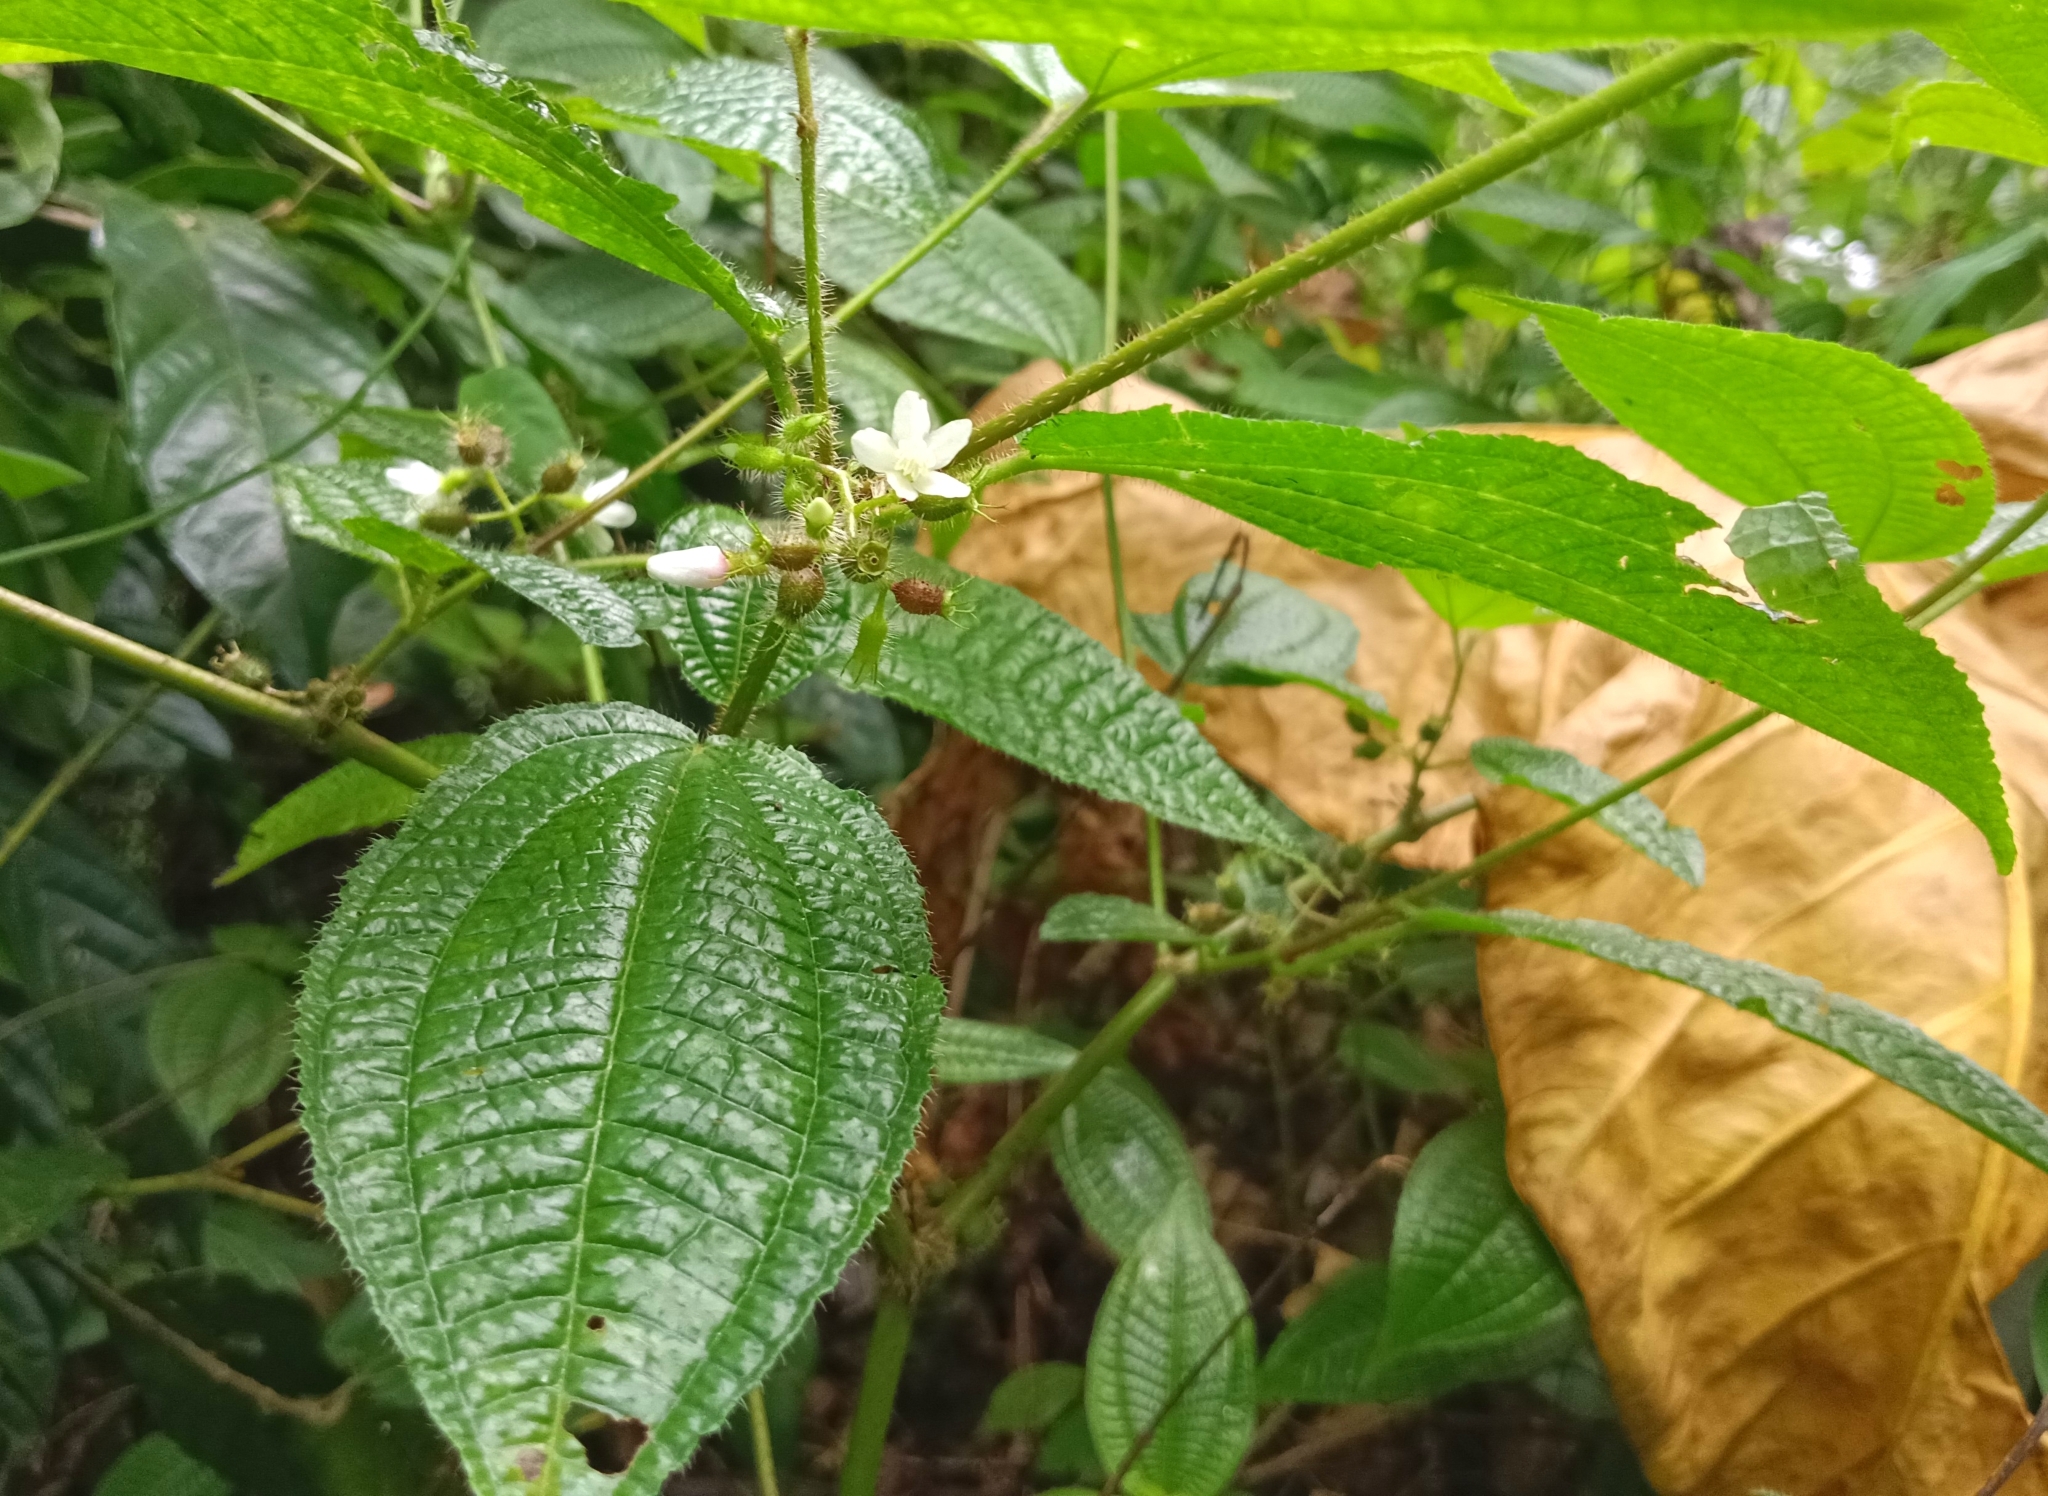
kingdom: Plantae
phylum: Tracheophyta
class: Magnoliopsida
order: Myrtales
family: Melastomataceae
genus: Miconia
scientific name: Miconia crenata
